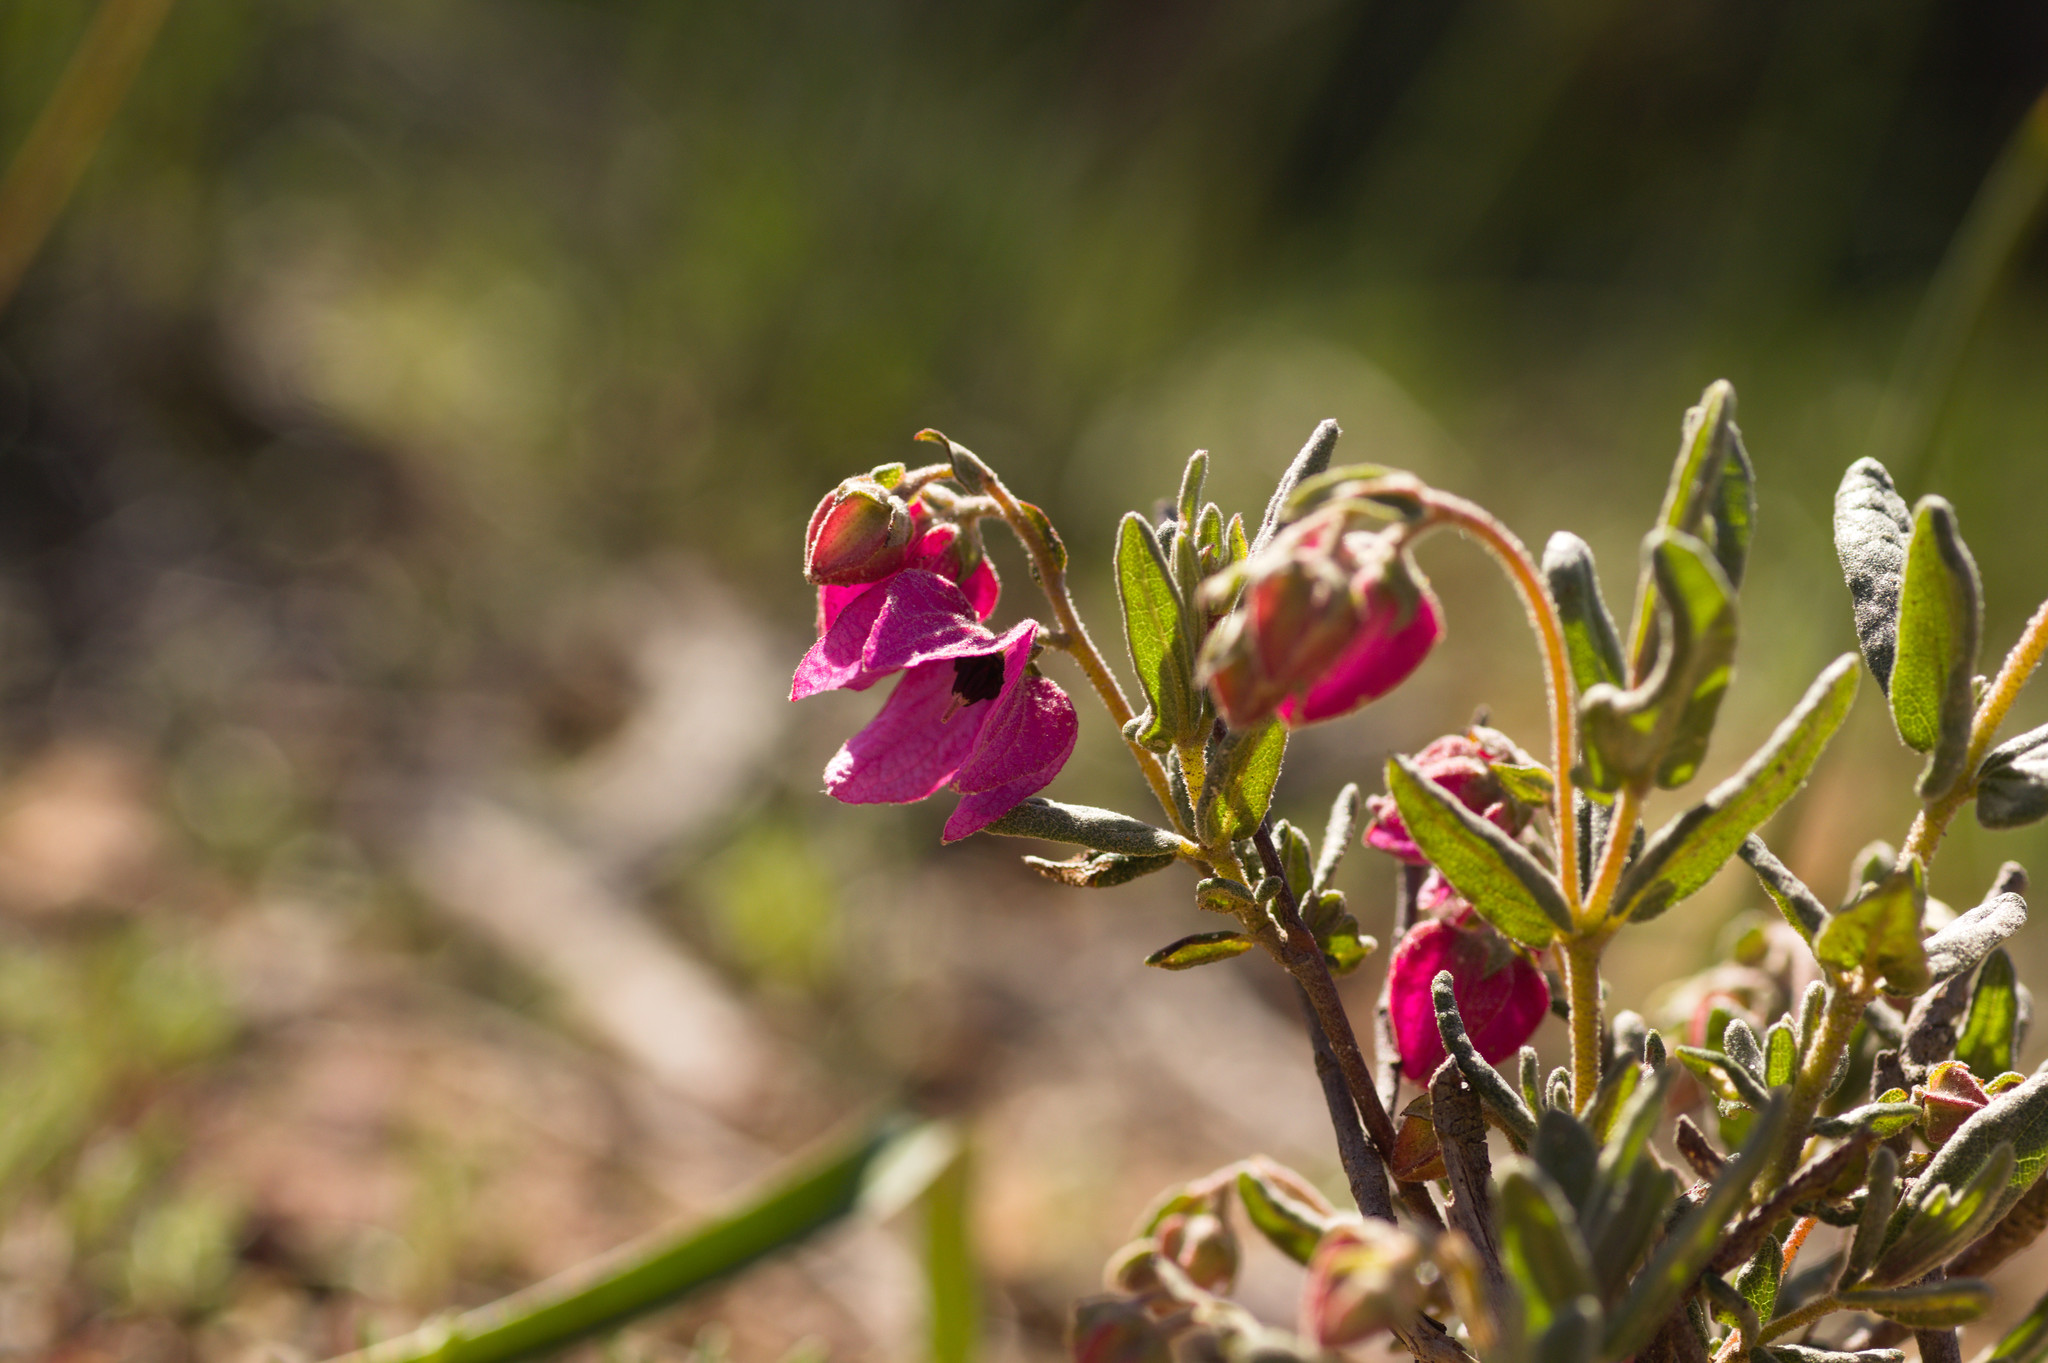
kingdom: Plantae
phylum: Tracheophyta
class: Magnoliopsida
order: Malvales
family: Malvaceae
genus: Guichenotia
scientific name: Guichenotia sarotes
